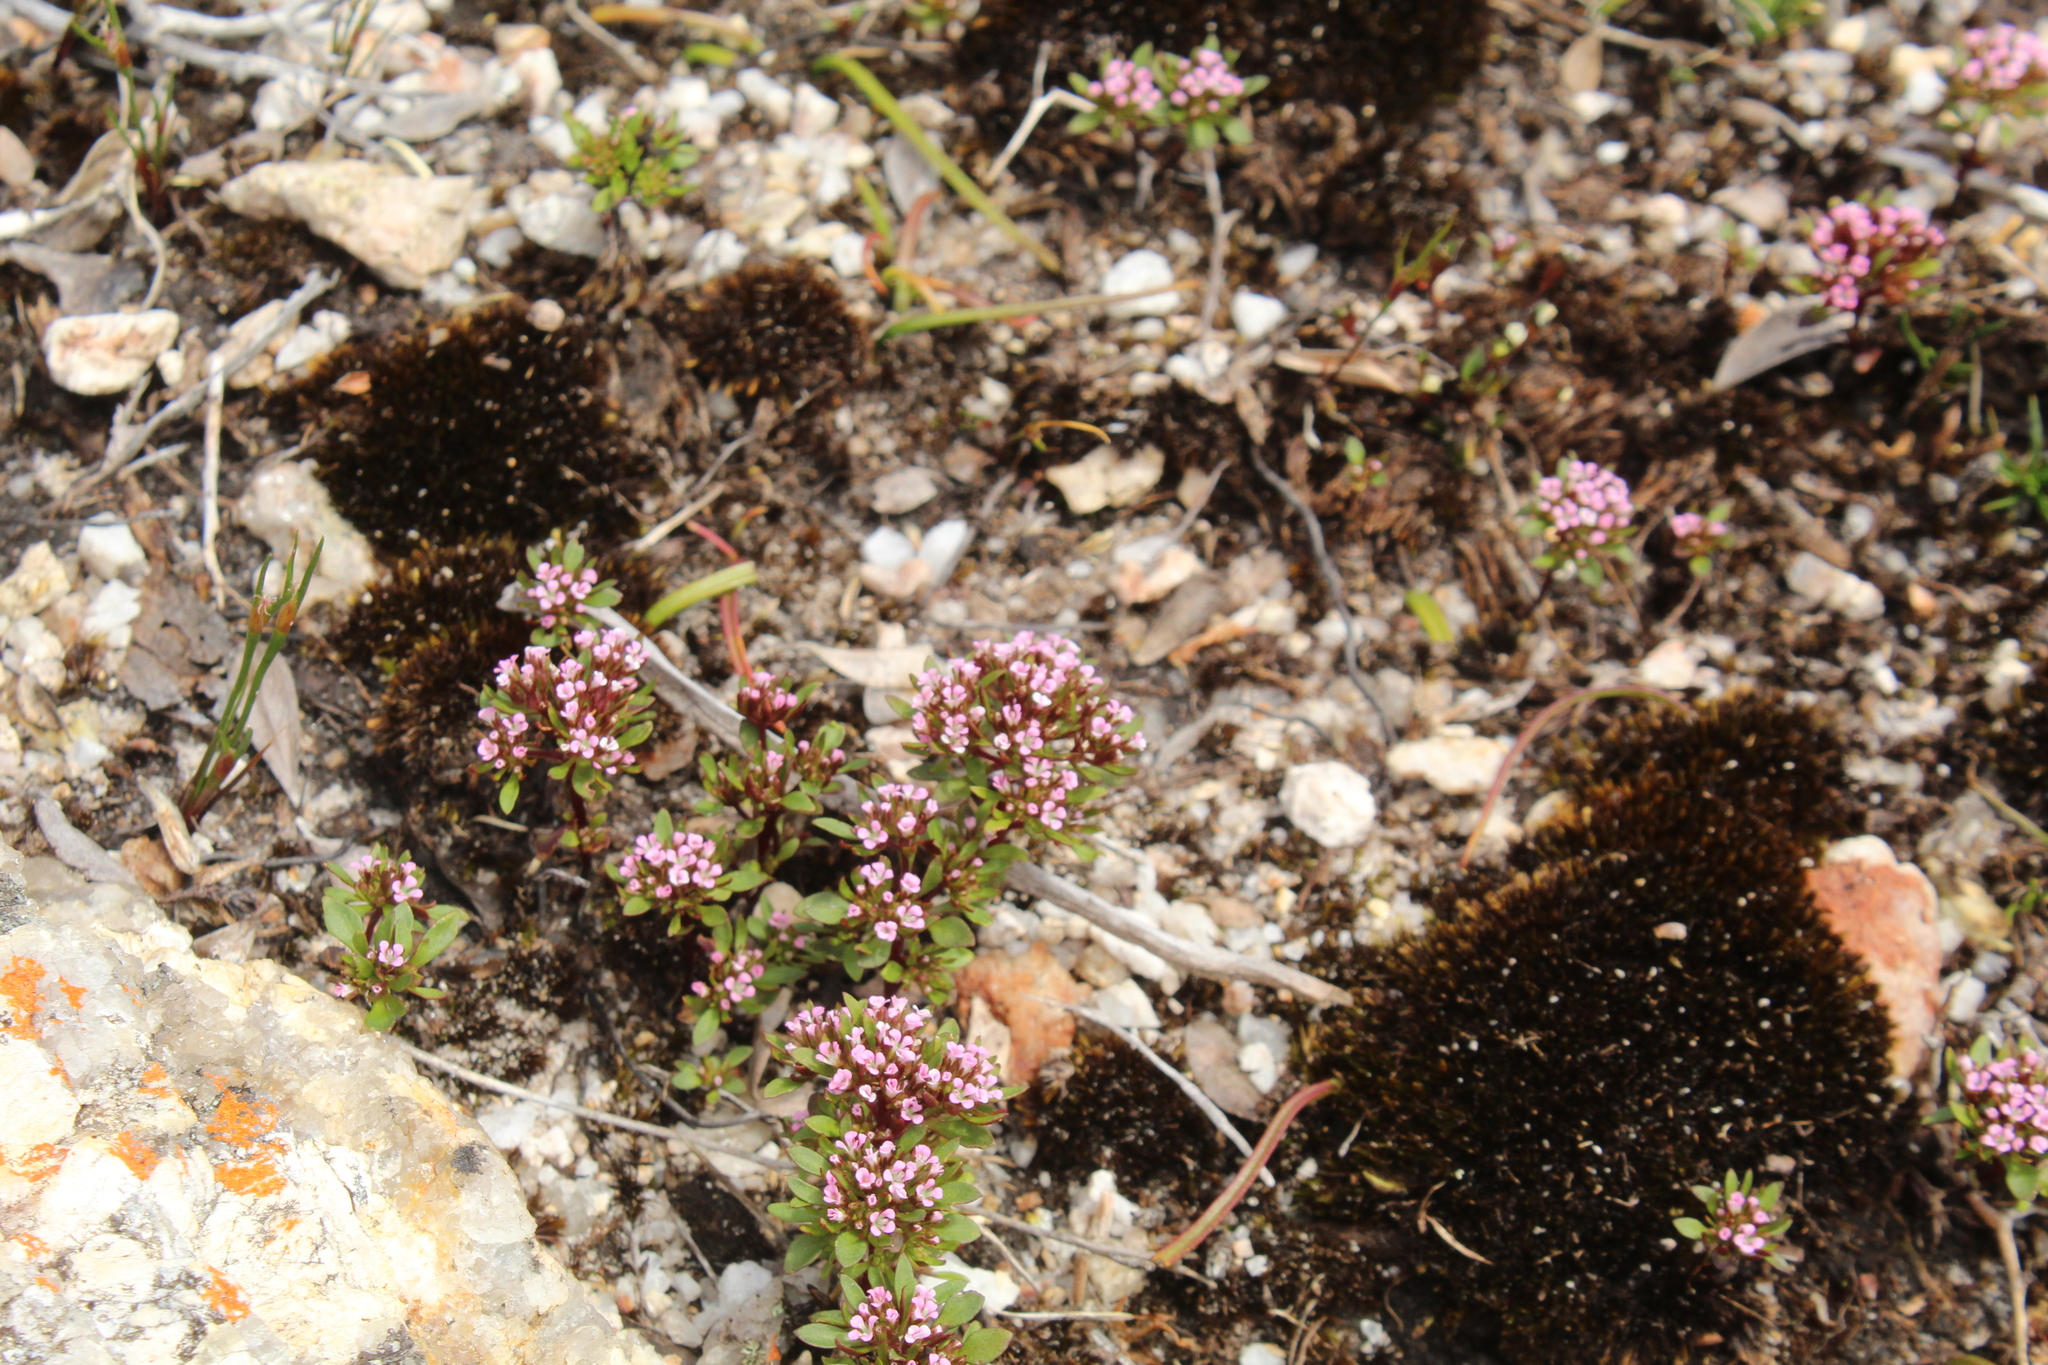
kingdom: Plantae
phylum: Tracheophyta
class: Magnoliopsida
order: Asterales
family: Stylidiaceae
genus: Levenhookia
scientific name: Levenhookia pusilla
